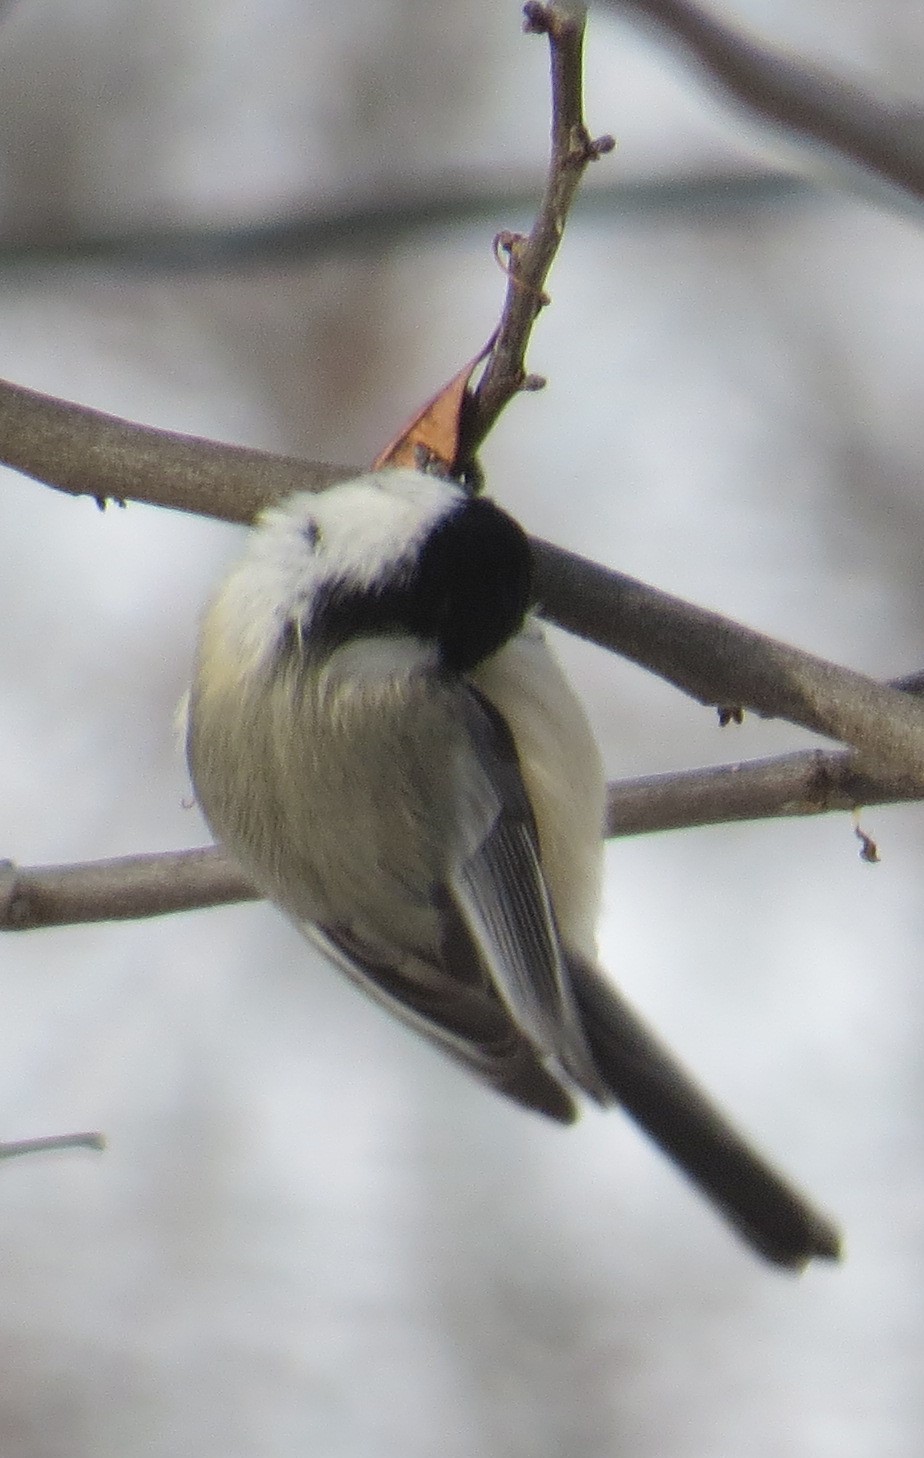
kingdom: Animalia
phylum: Chordata
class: Aves
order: Passeriformes
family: Paridae
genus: Poecile
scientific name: Poecile atricapillus
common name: Black-capped chickadee
